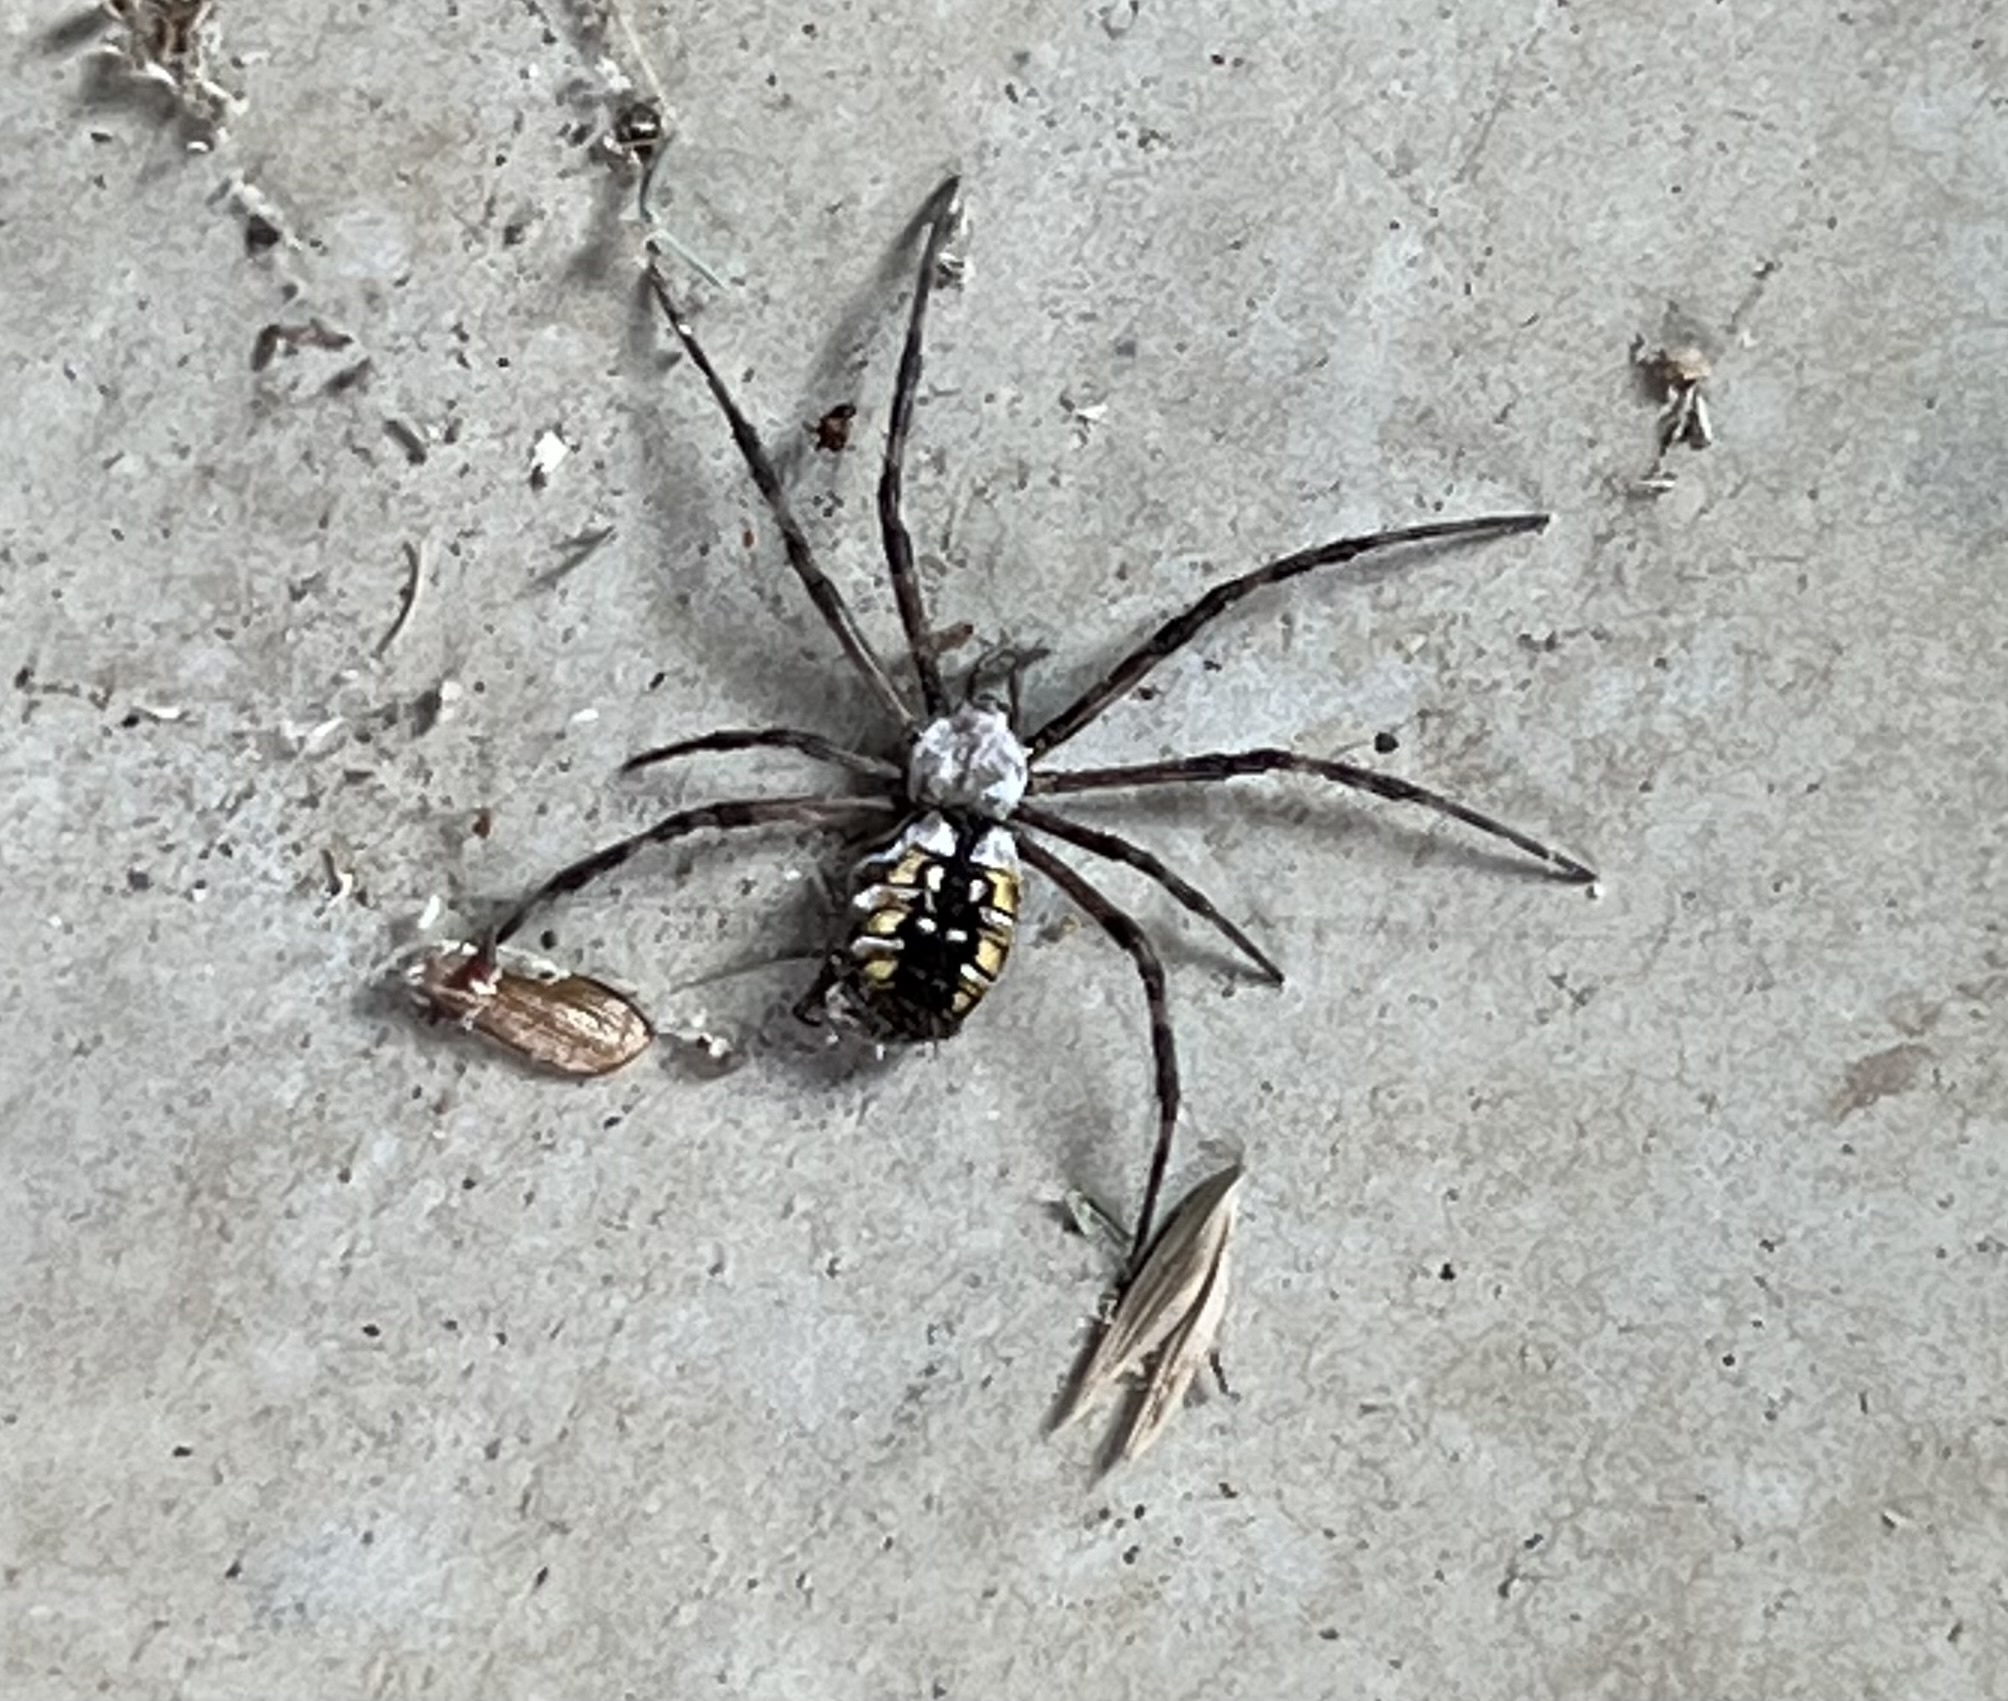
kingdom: Animalia
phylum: Arthropoda
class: Arachnida
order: Araneae
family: Araneidae
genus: Argiope
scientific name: Argiope aurantia
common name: Orb weavers
